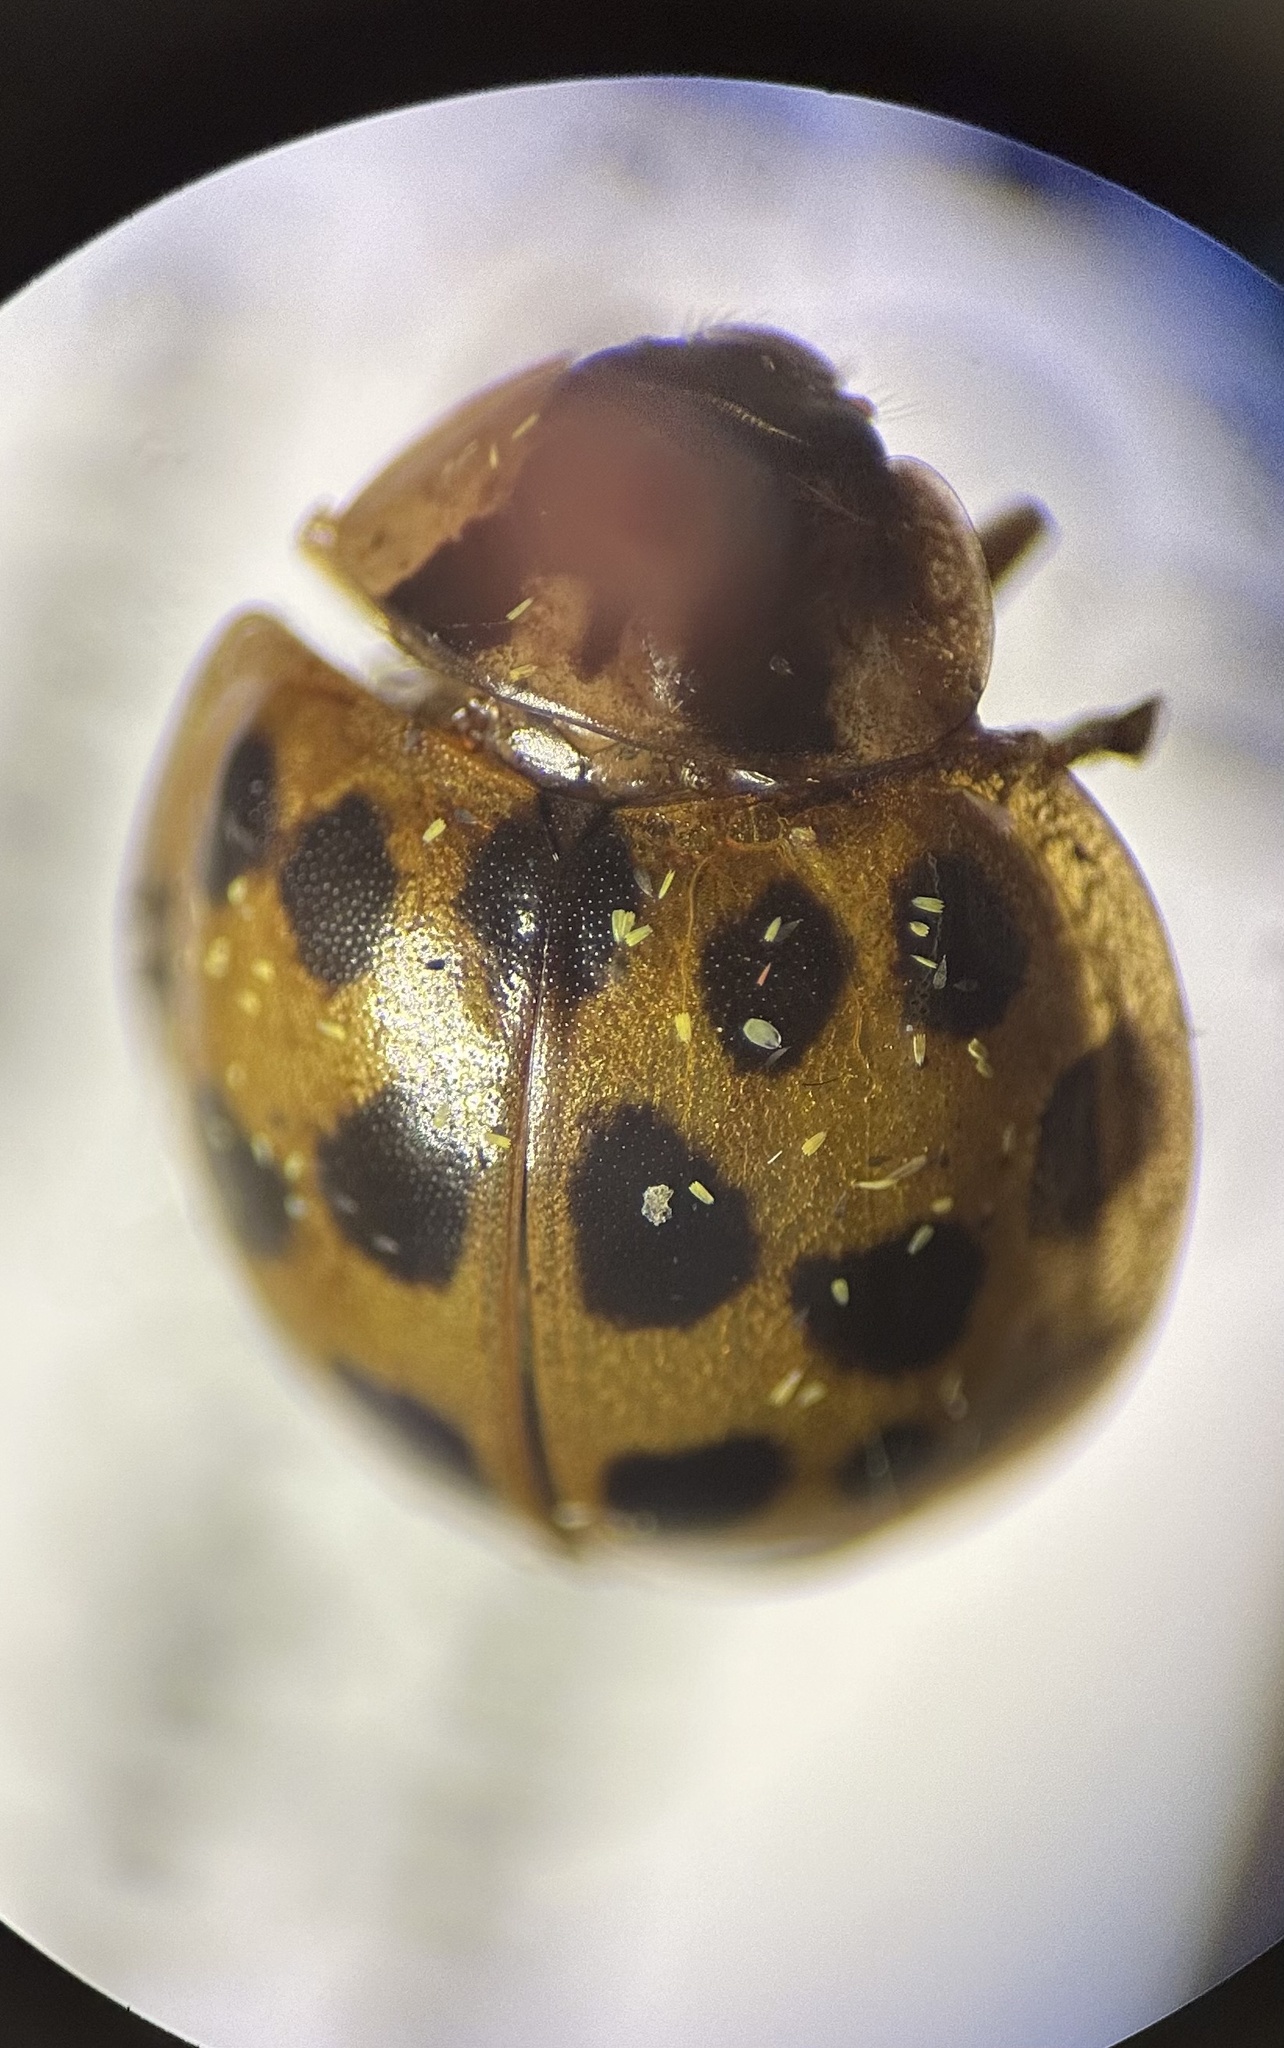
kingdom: Animalia
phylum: Arthropoda
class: Insecta
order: Coleoptera
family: Coccinellidae
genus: Harmonia
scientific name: Harmonia axyridis
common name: Harlequin ladybird
